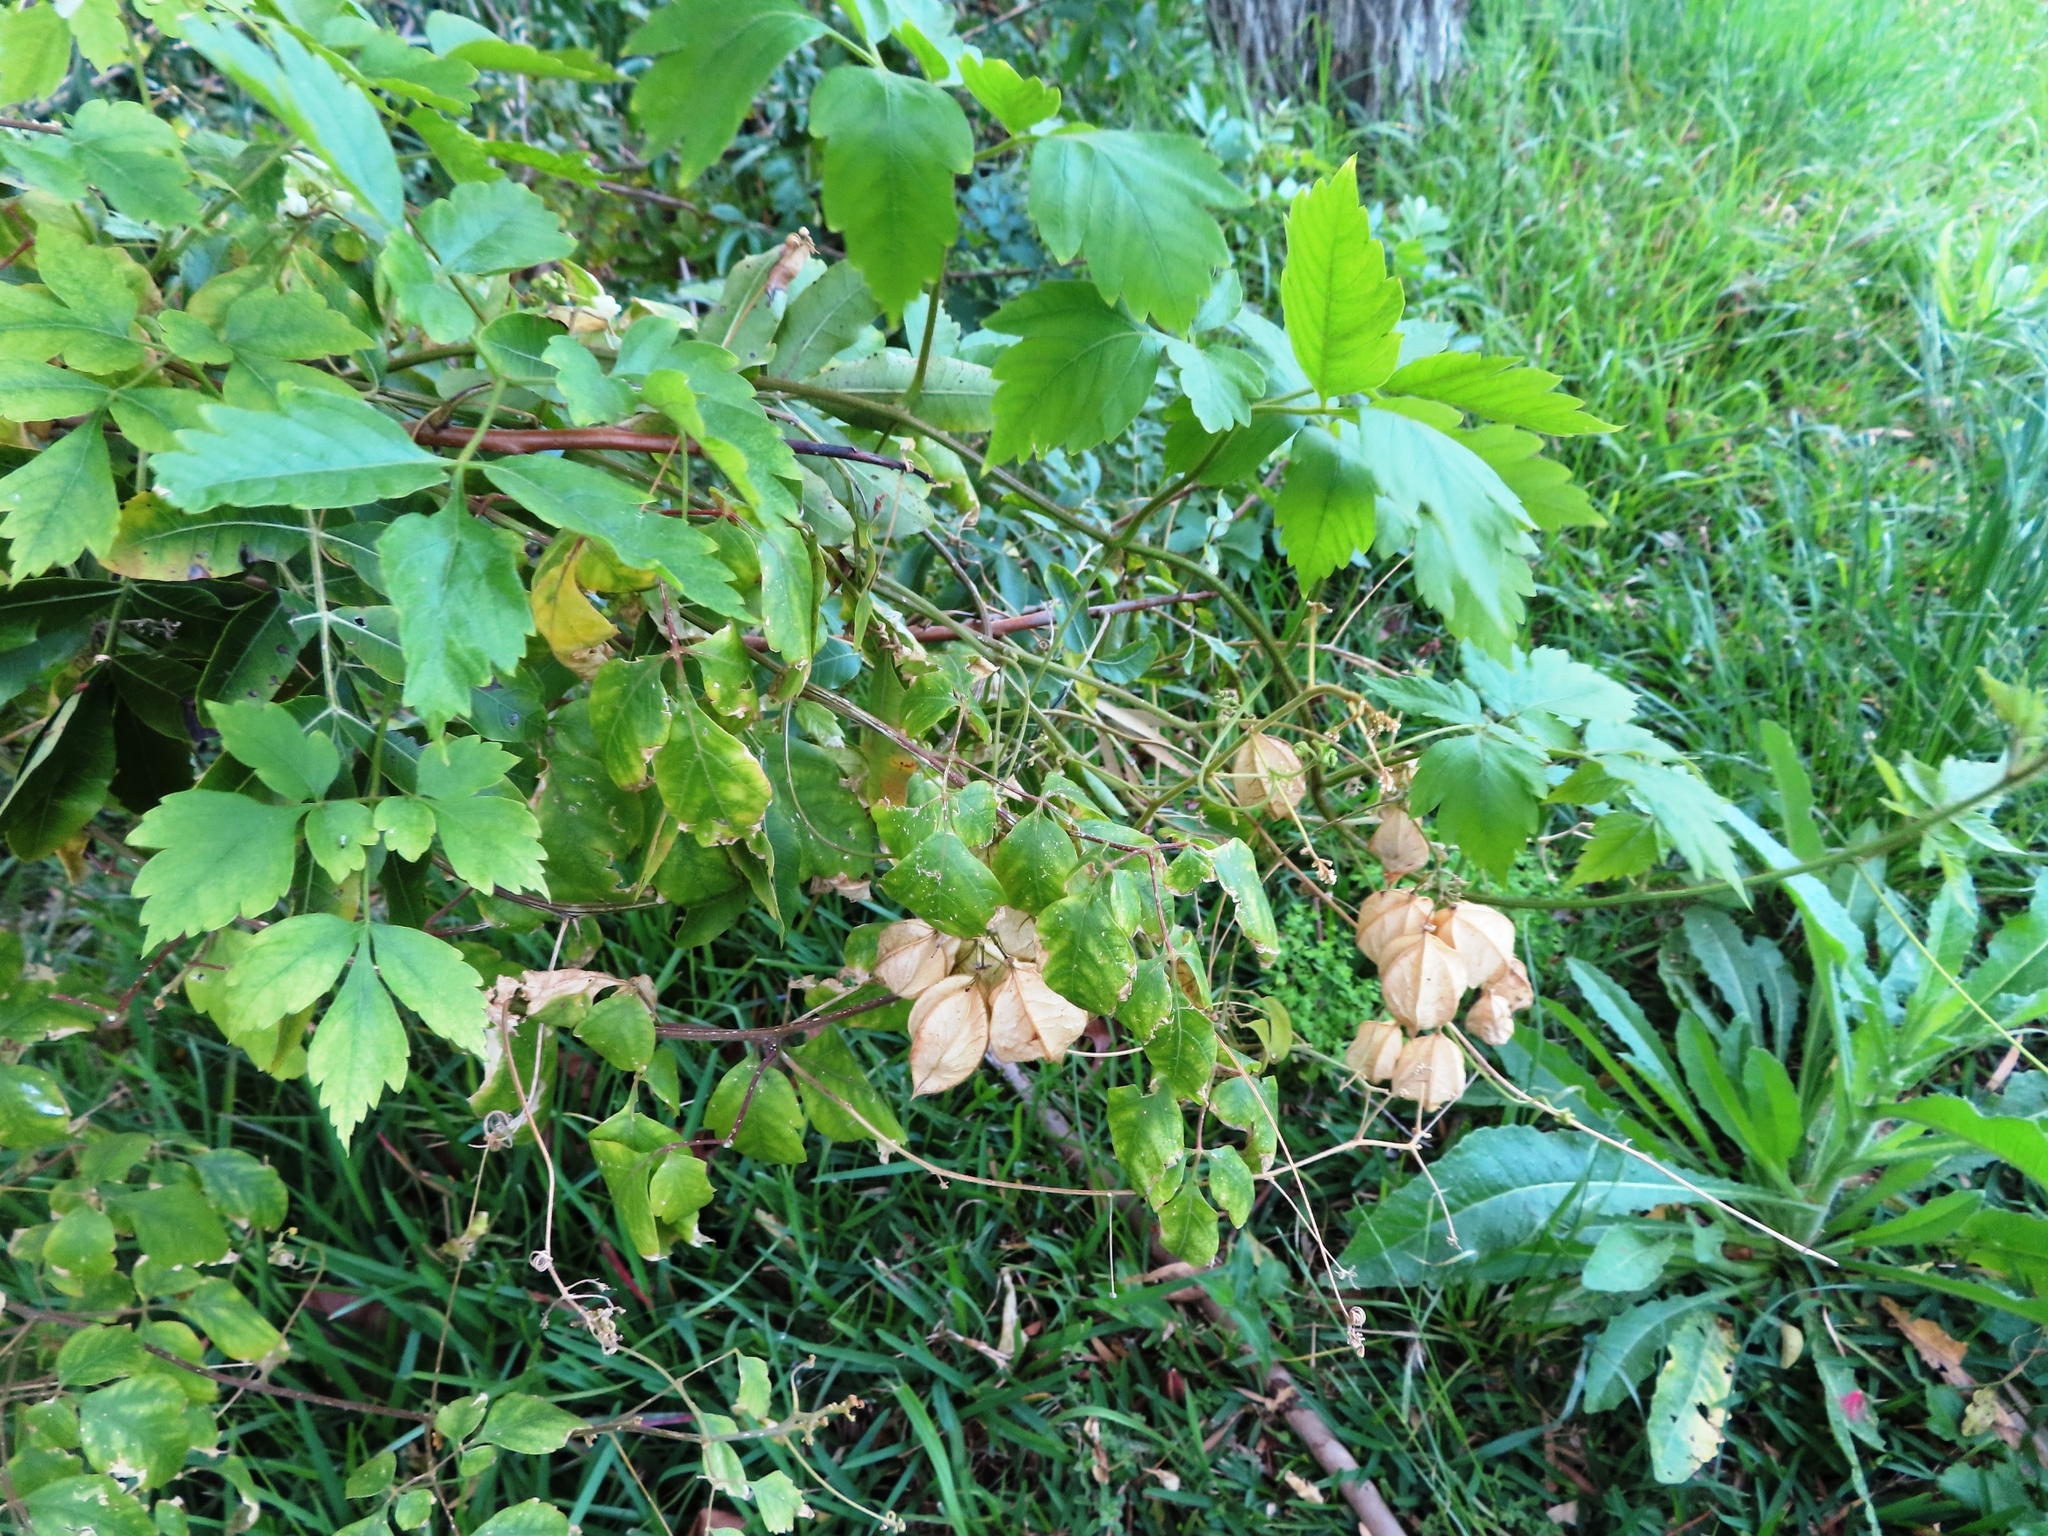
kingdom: Plantae
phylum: Tracheophyta
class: Magnoliopsida
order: Sapindales
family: Sapindaceae
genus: Cardiospermum
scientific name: Cardiospermum grandiflorum
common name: Balloon vine
